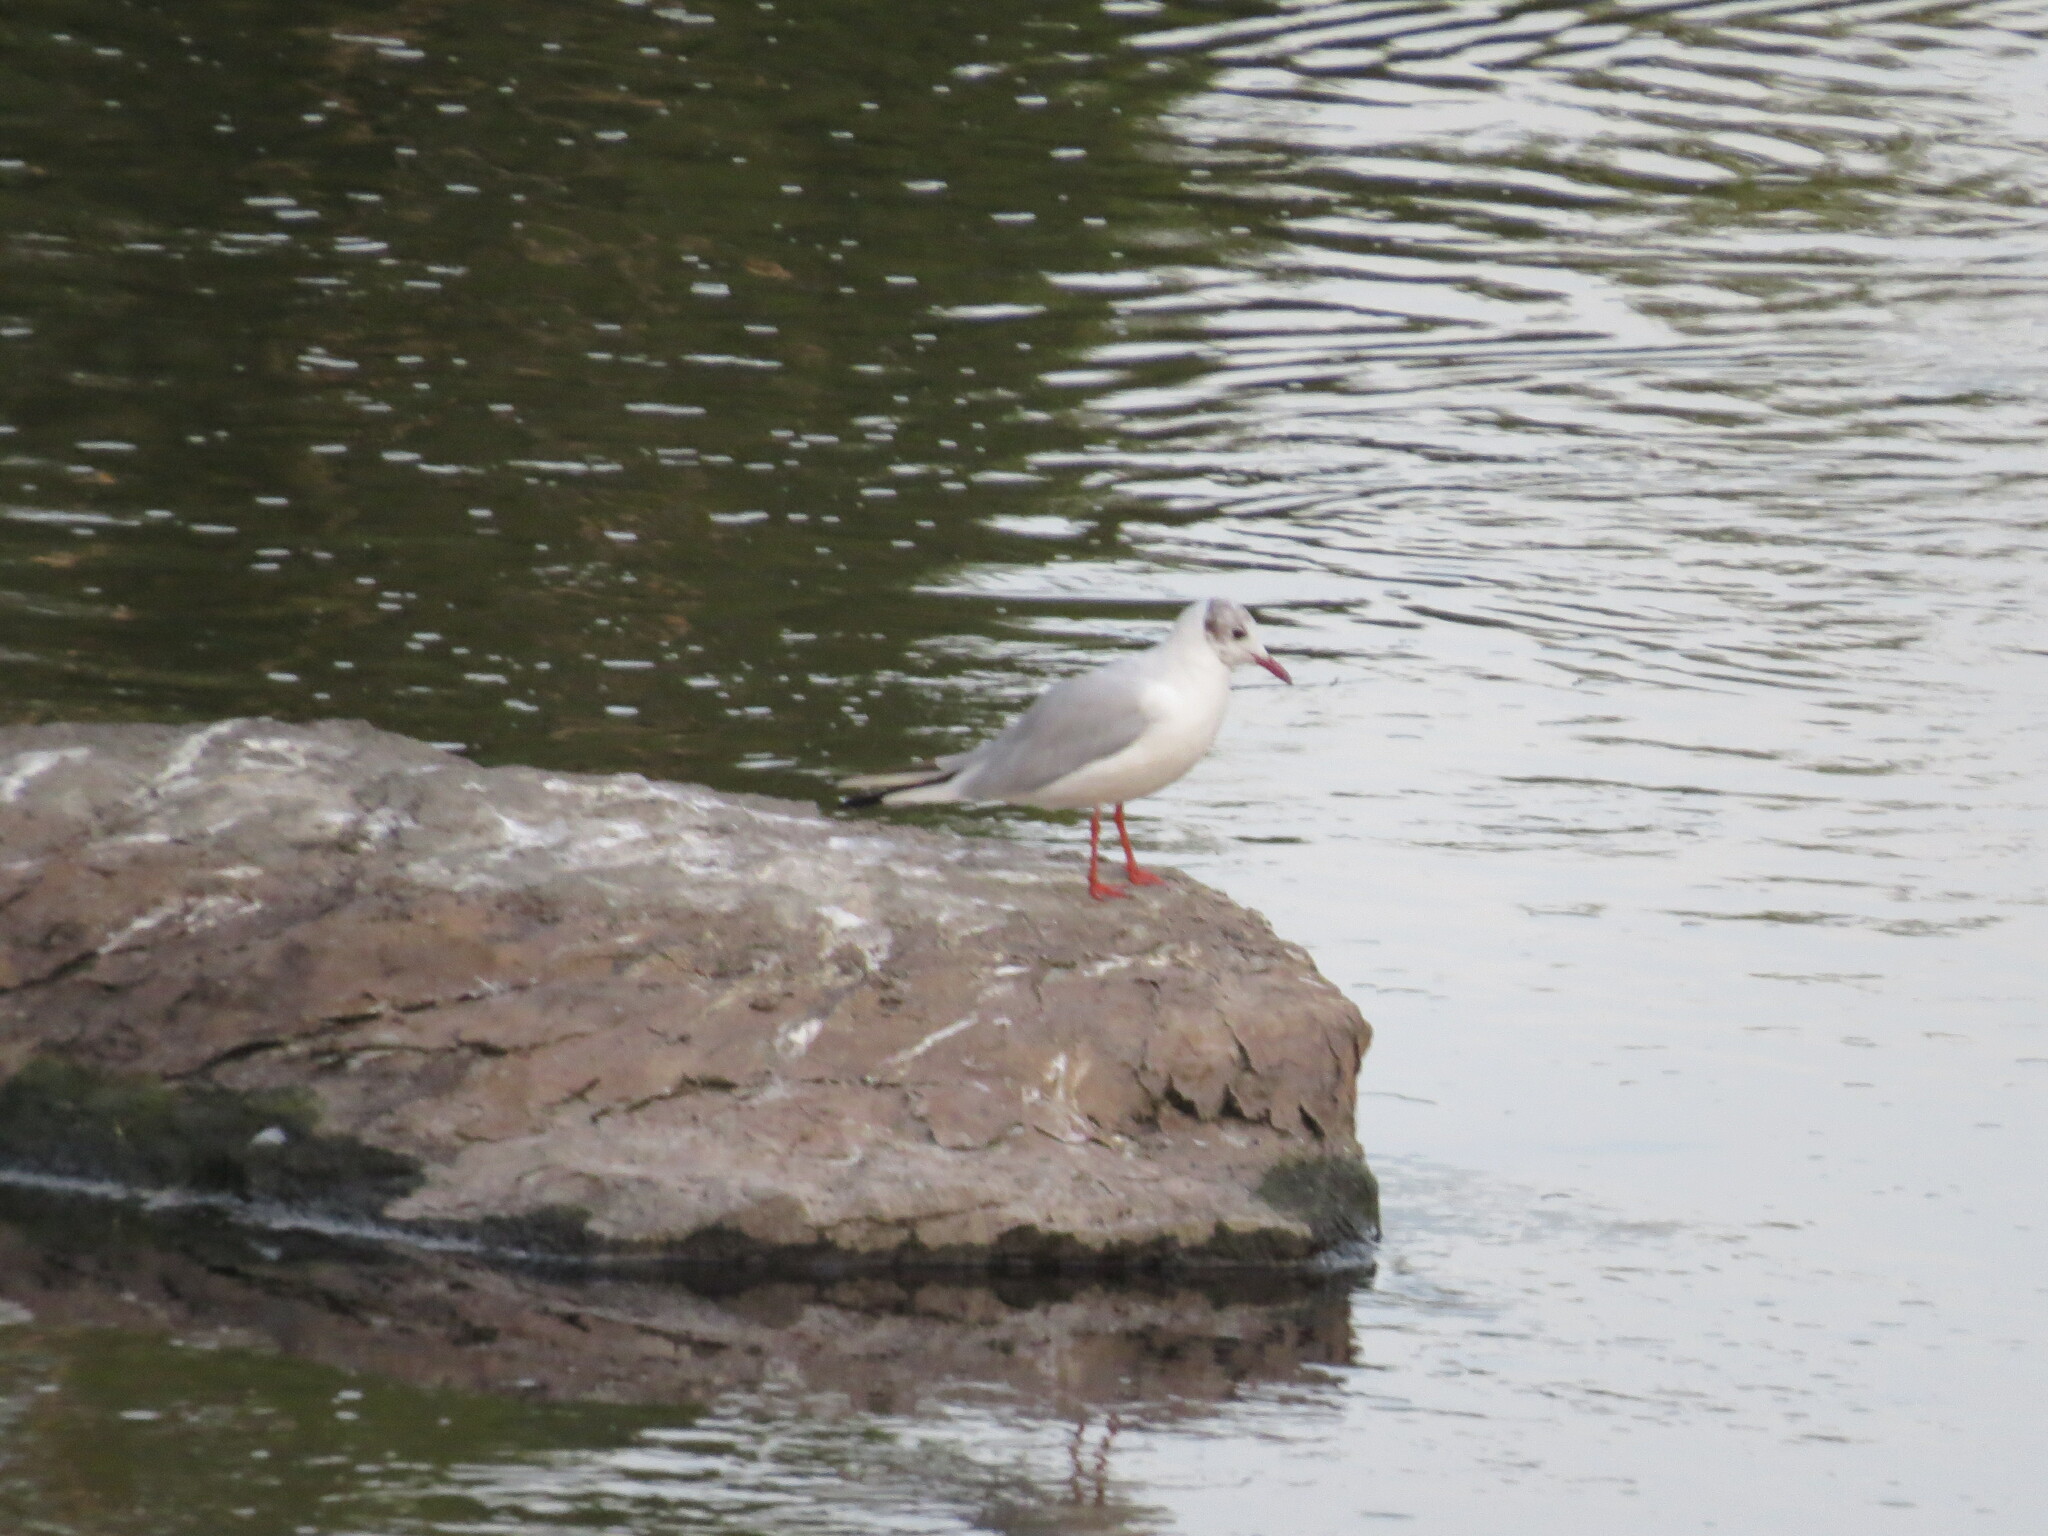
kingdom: Animalia
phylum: Chordata
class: Aves
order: Charadriiformes
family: Laridae
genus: Chroicocephalus
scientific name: Chroicocephalus ridibundus
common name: Black-headed gull
